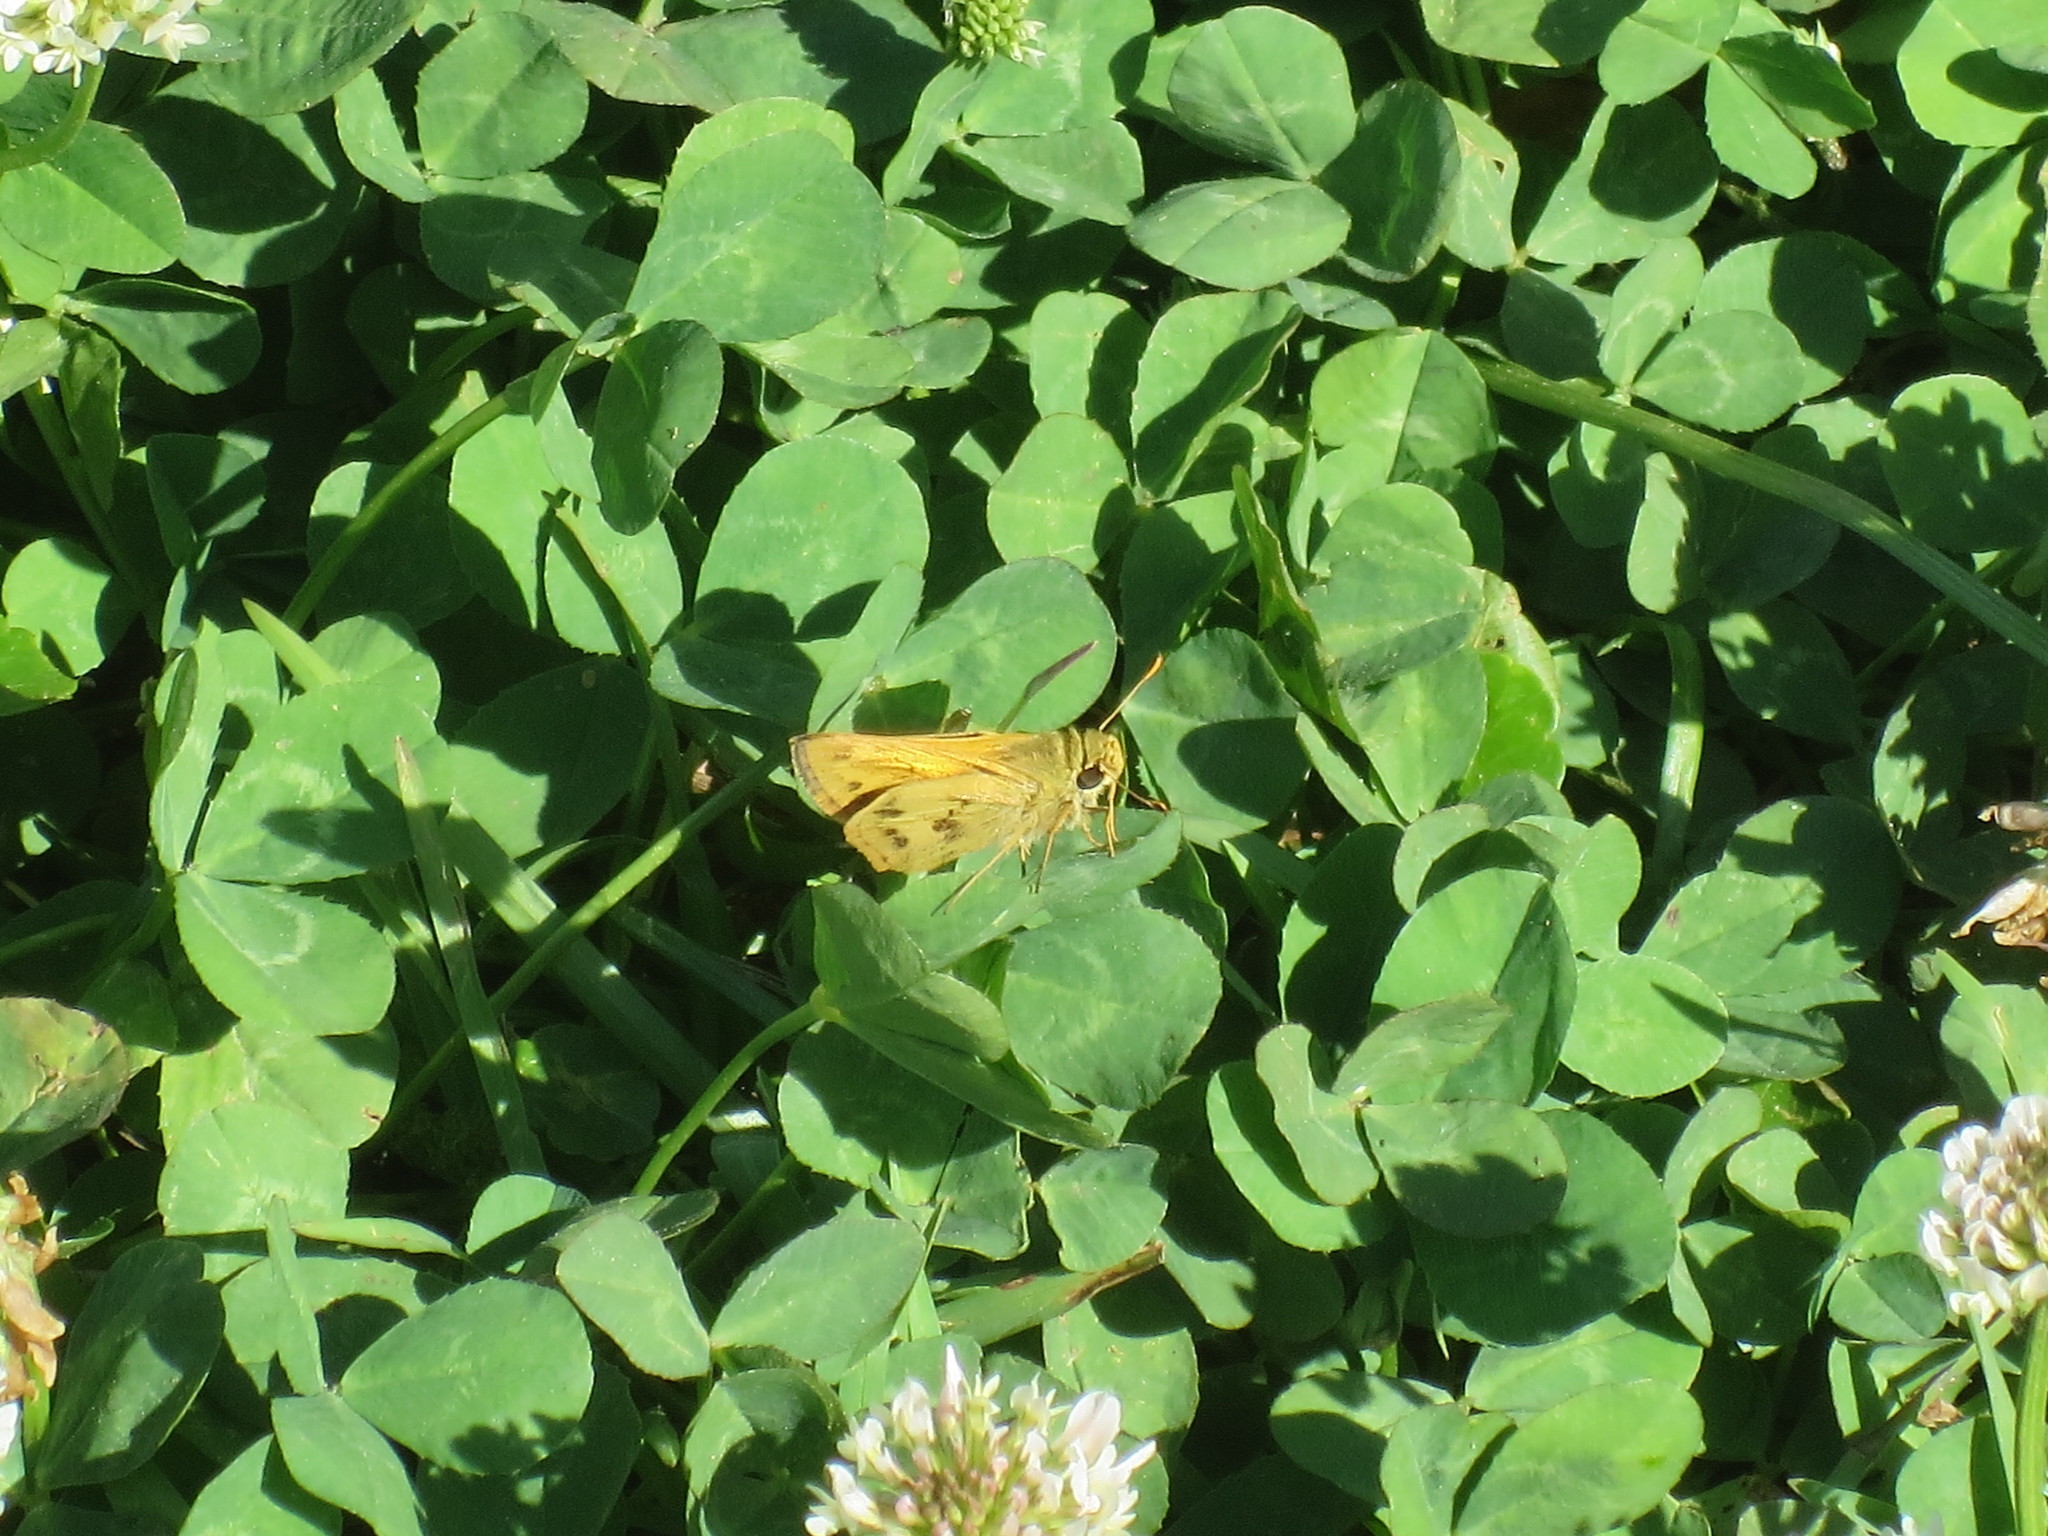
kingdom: Animalia
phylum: Arthropoda
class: Insecta
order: Lepidoptera
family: Hesperiidae
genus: Polites
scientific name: Polites vibex
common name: Whirlabout
